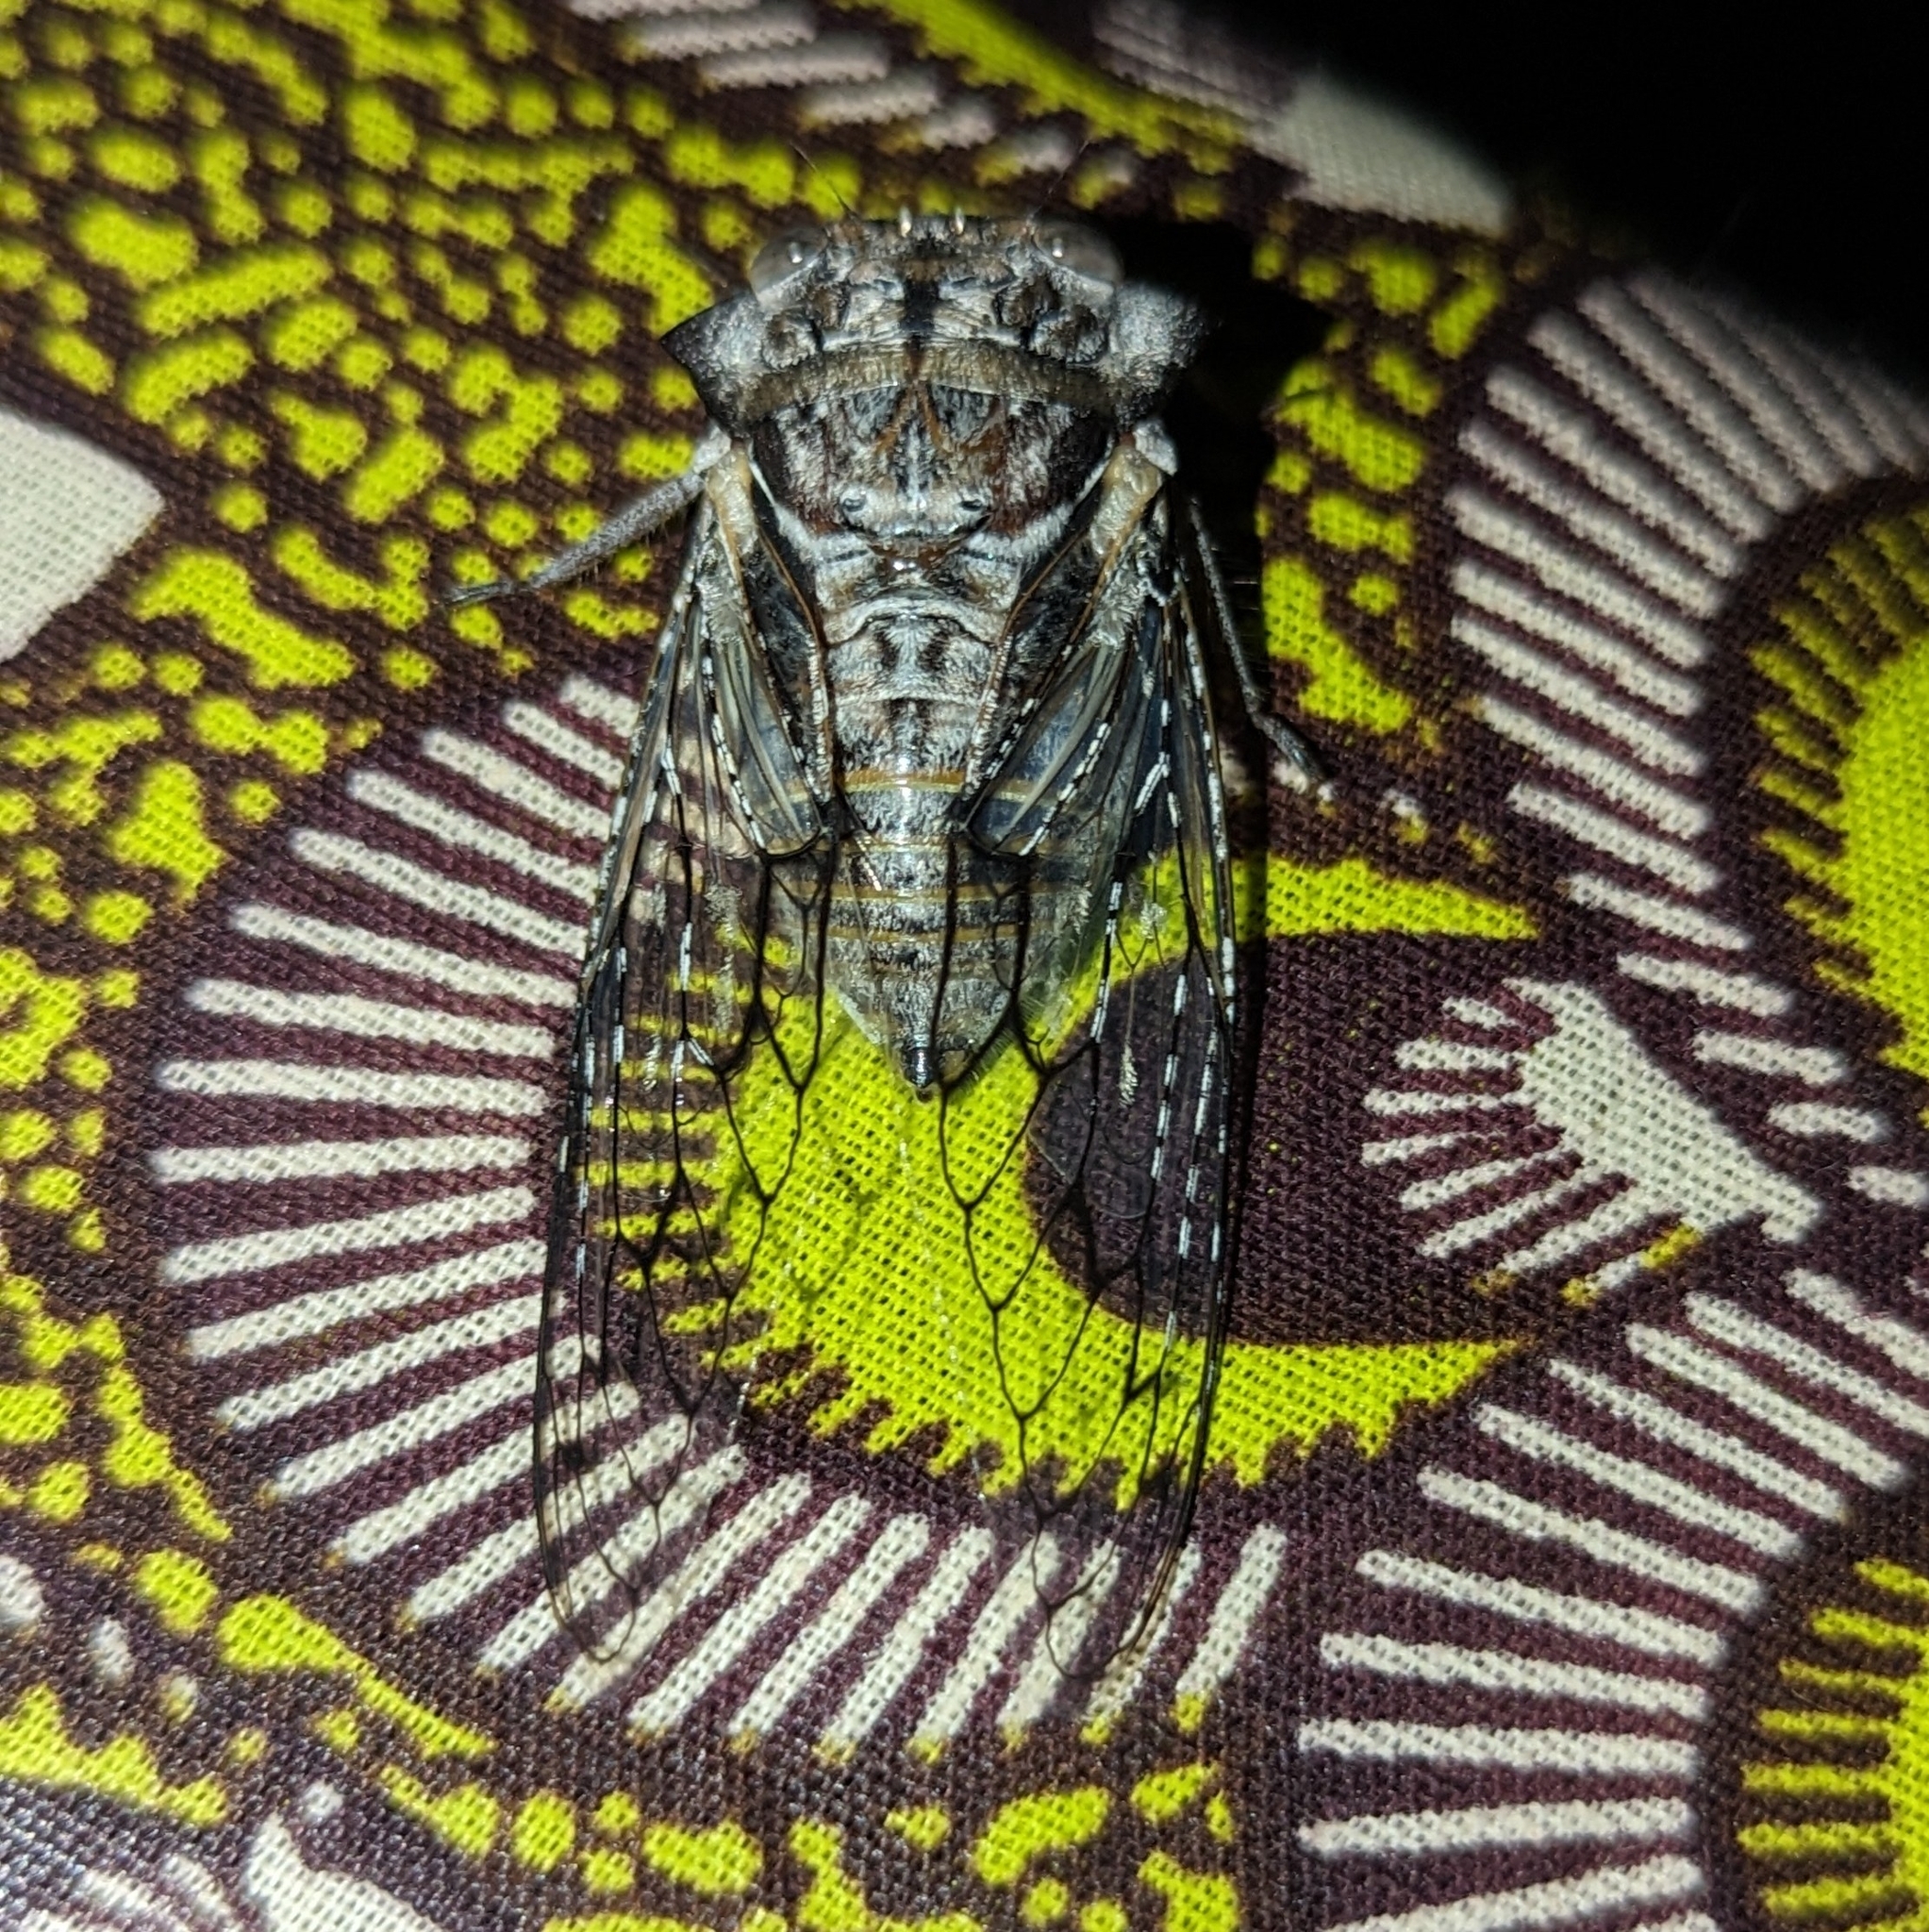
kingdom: Animalia
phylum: Arthropoda
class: Insecta
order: Hemiptera
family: Cicadidae
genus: Oxypleura
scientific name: Oxypleura quadraticollis
